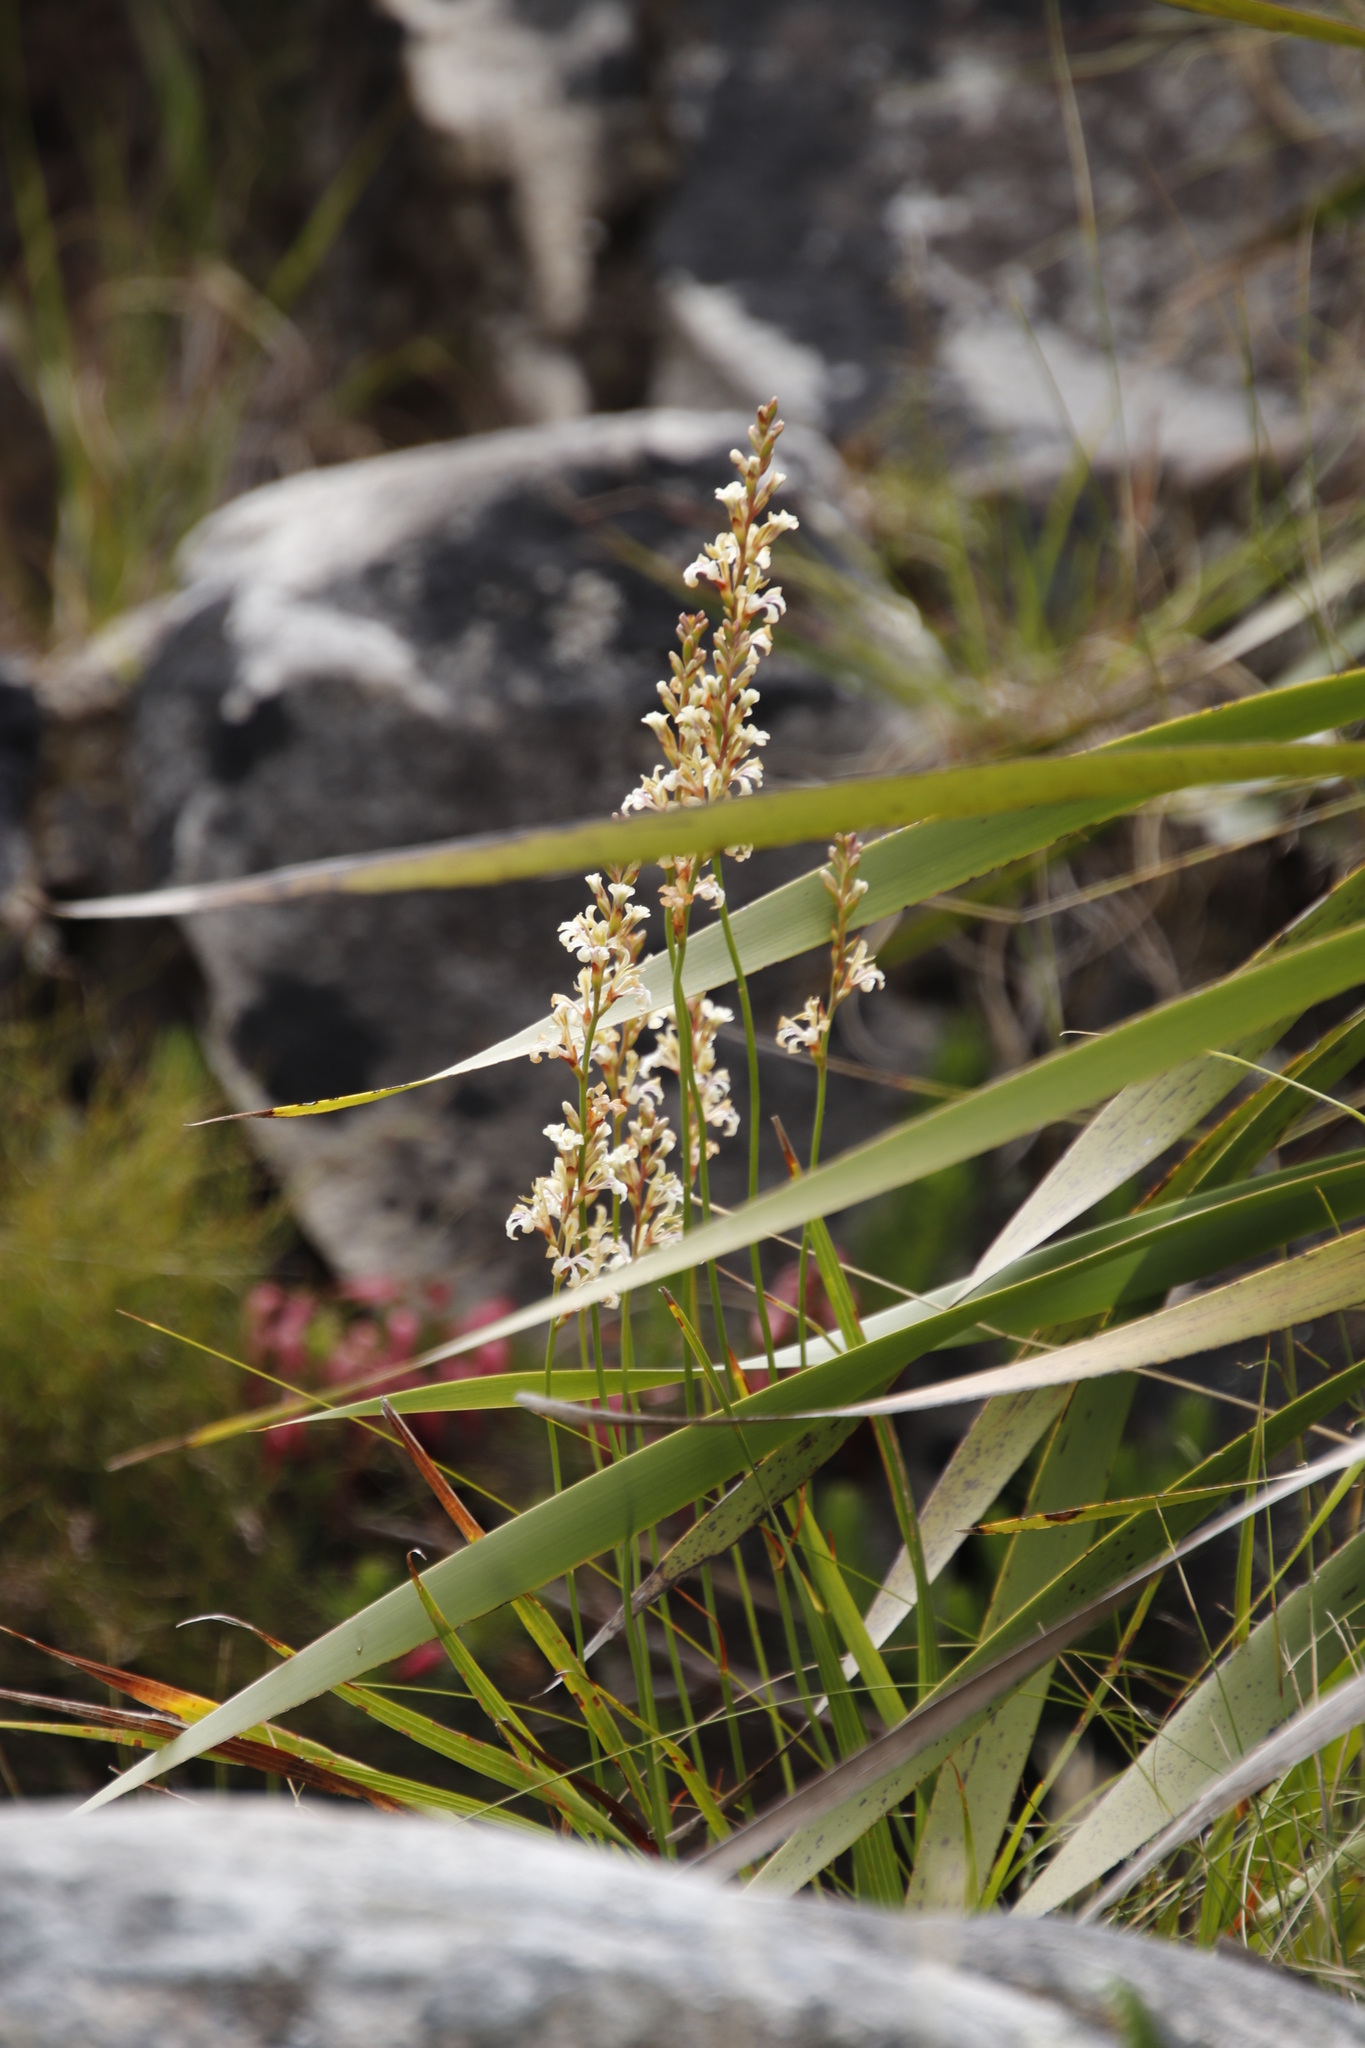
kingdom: Plantae
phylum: Tracheophyta
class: Liliopsida
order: Asparagales
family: Iridaceae
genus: Tritoniopsis
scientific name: Tritoniopsis unguicularis
